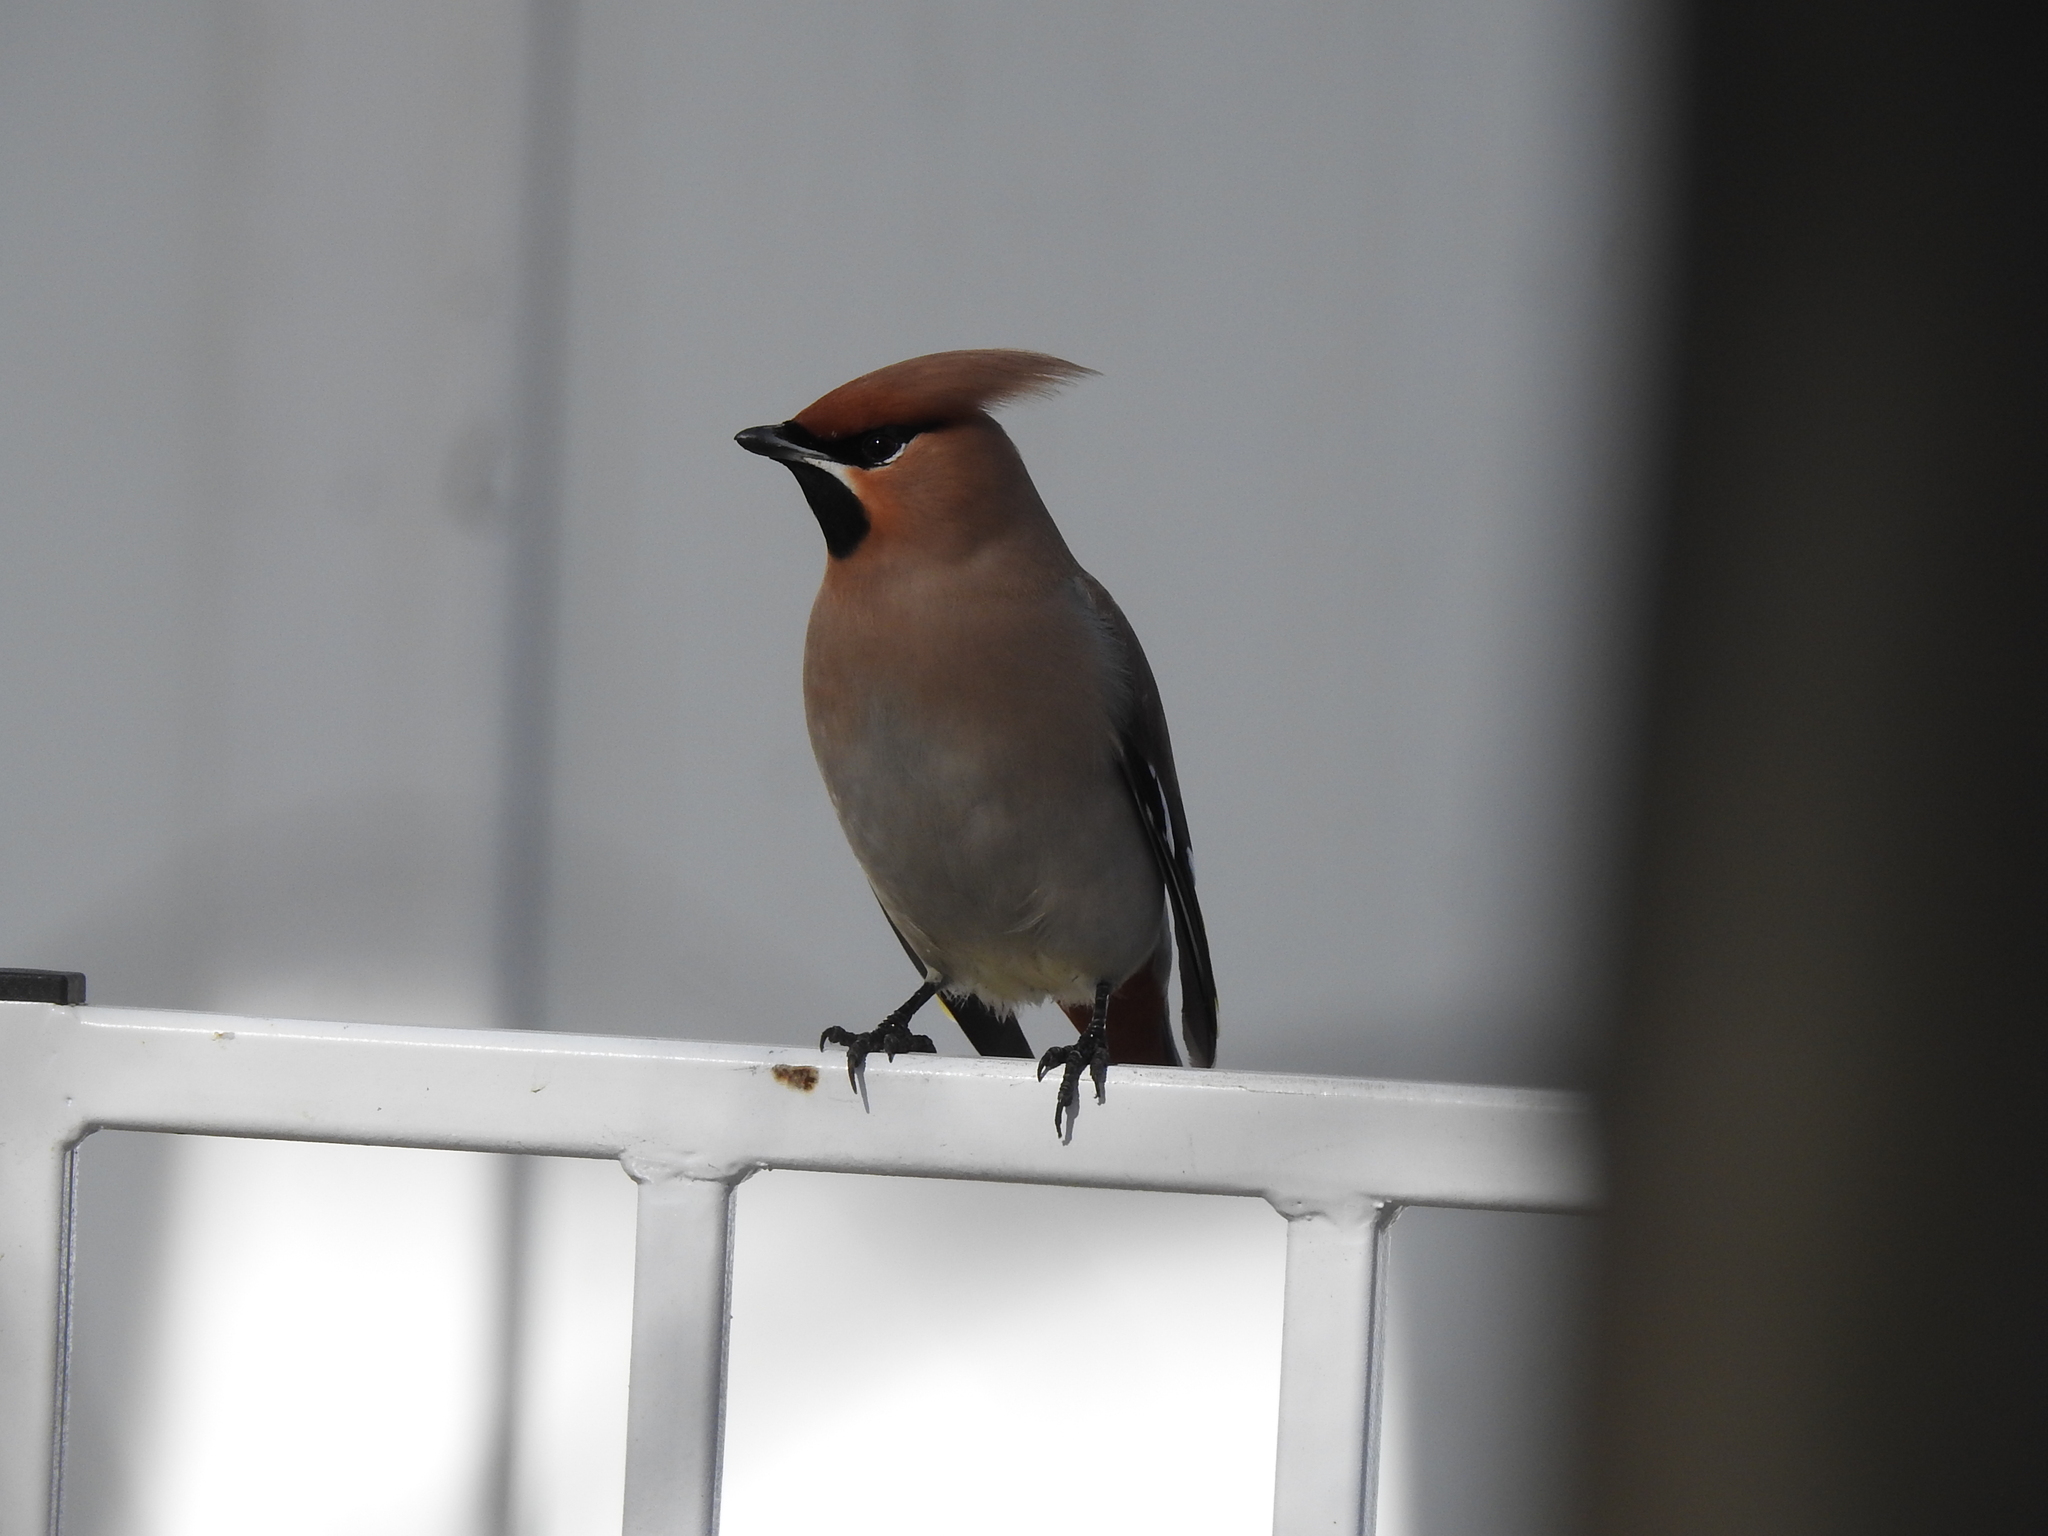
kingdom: Animalia
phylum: Chordata
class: Aves
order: Passeriformes
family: Bombycillidae
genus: Bombycilla
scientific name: Bombycilla garrulus
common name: Bohemian waxwing
